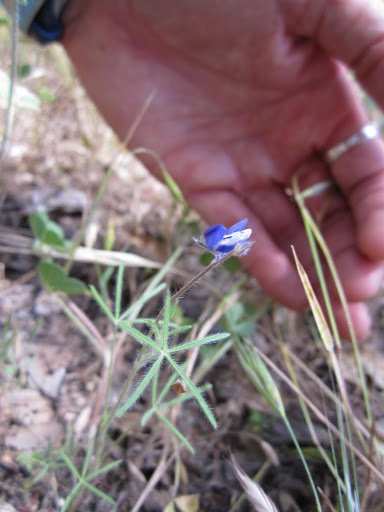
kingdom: Plantae
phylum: Tracheophyta
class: Magnoliopsida
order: Fabales
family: Fabaceae
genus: Lupinus
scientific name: Lupinus bicolor
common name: Miniature lupine
